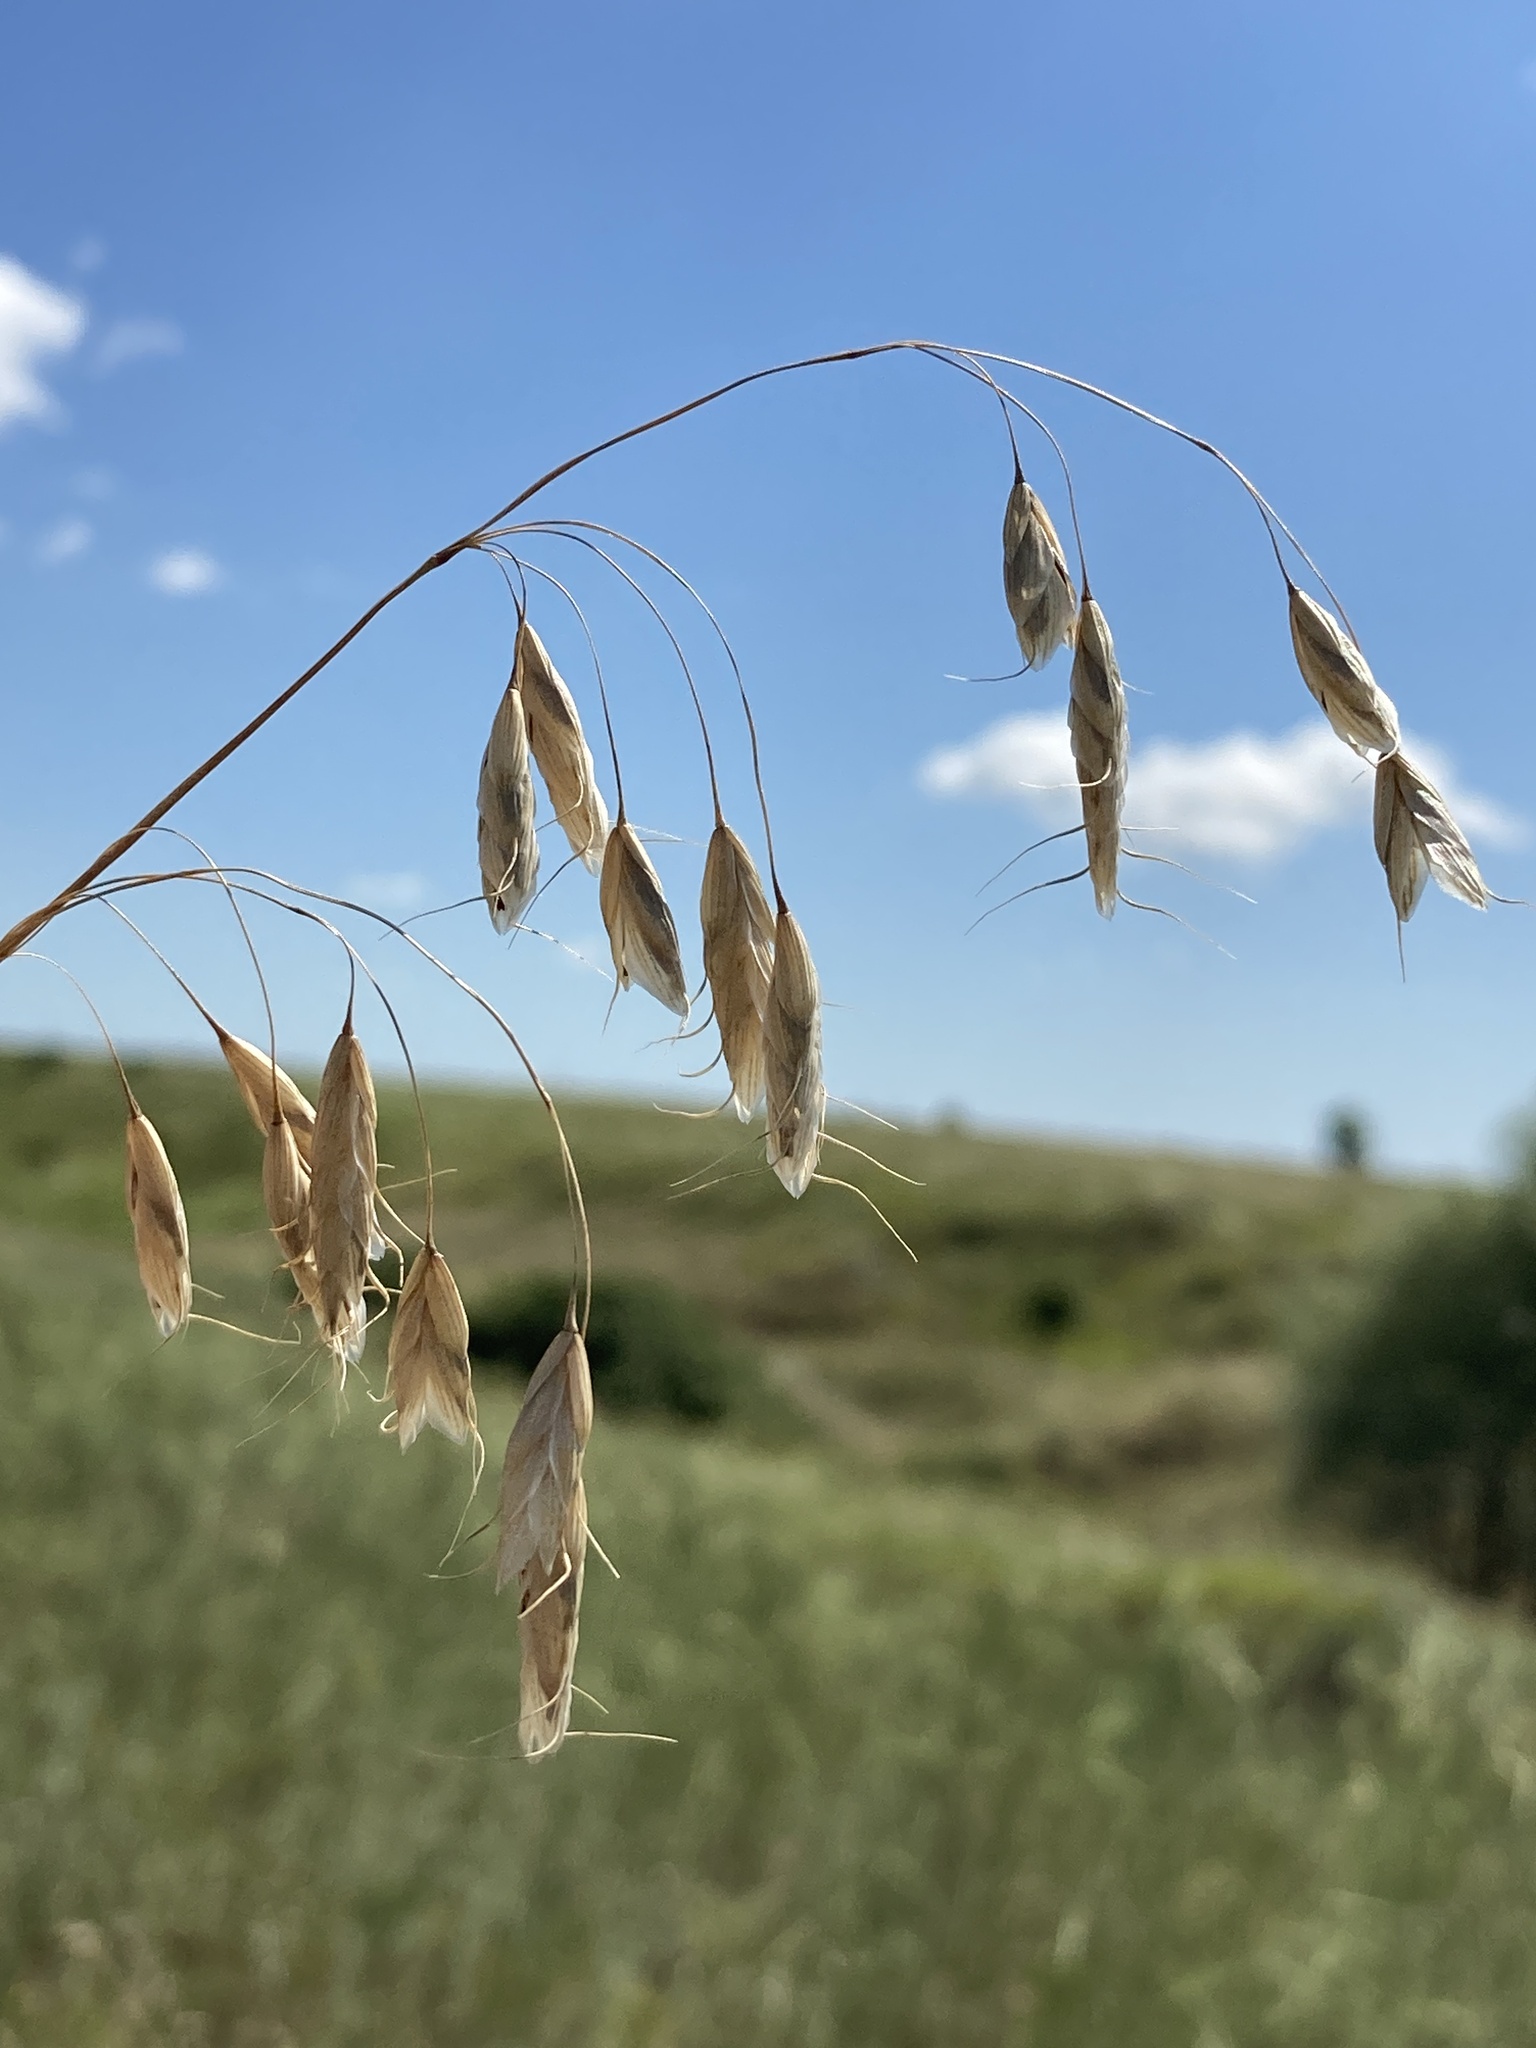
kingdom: Plantae
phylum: Tracheophyta
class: Liliopsida
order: Poales
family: Poaceae
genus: Bromus
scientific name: Bromus squarrosus
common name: Corn brome
